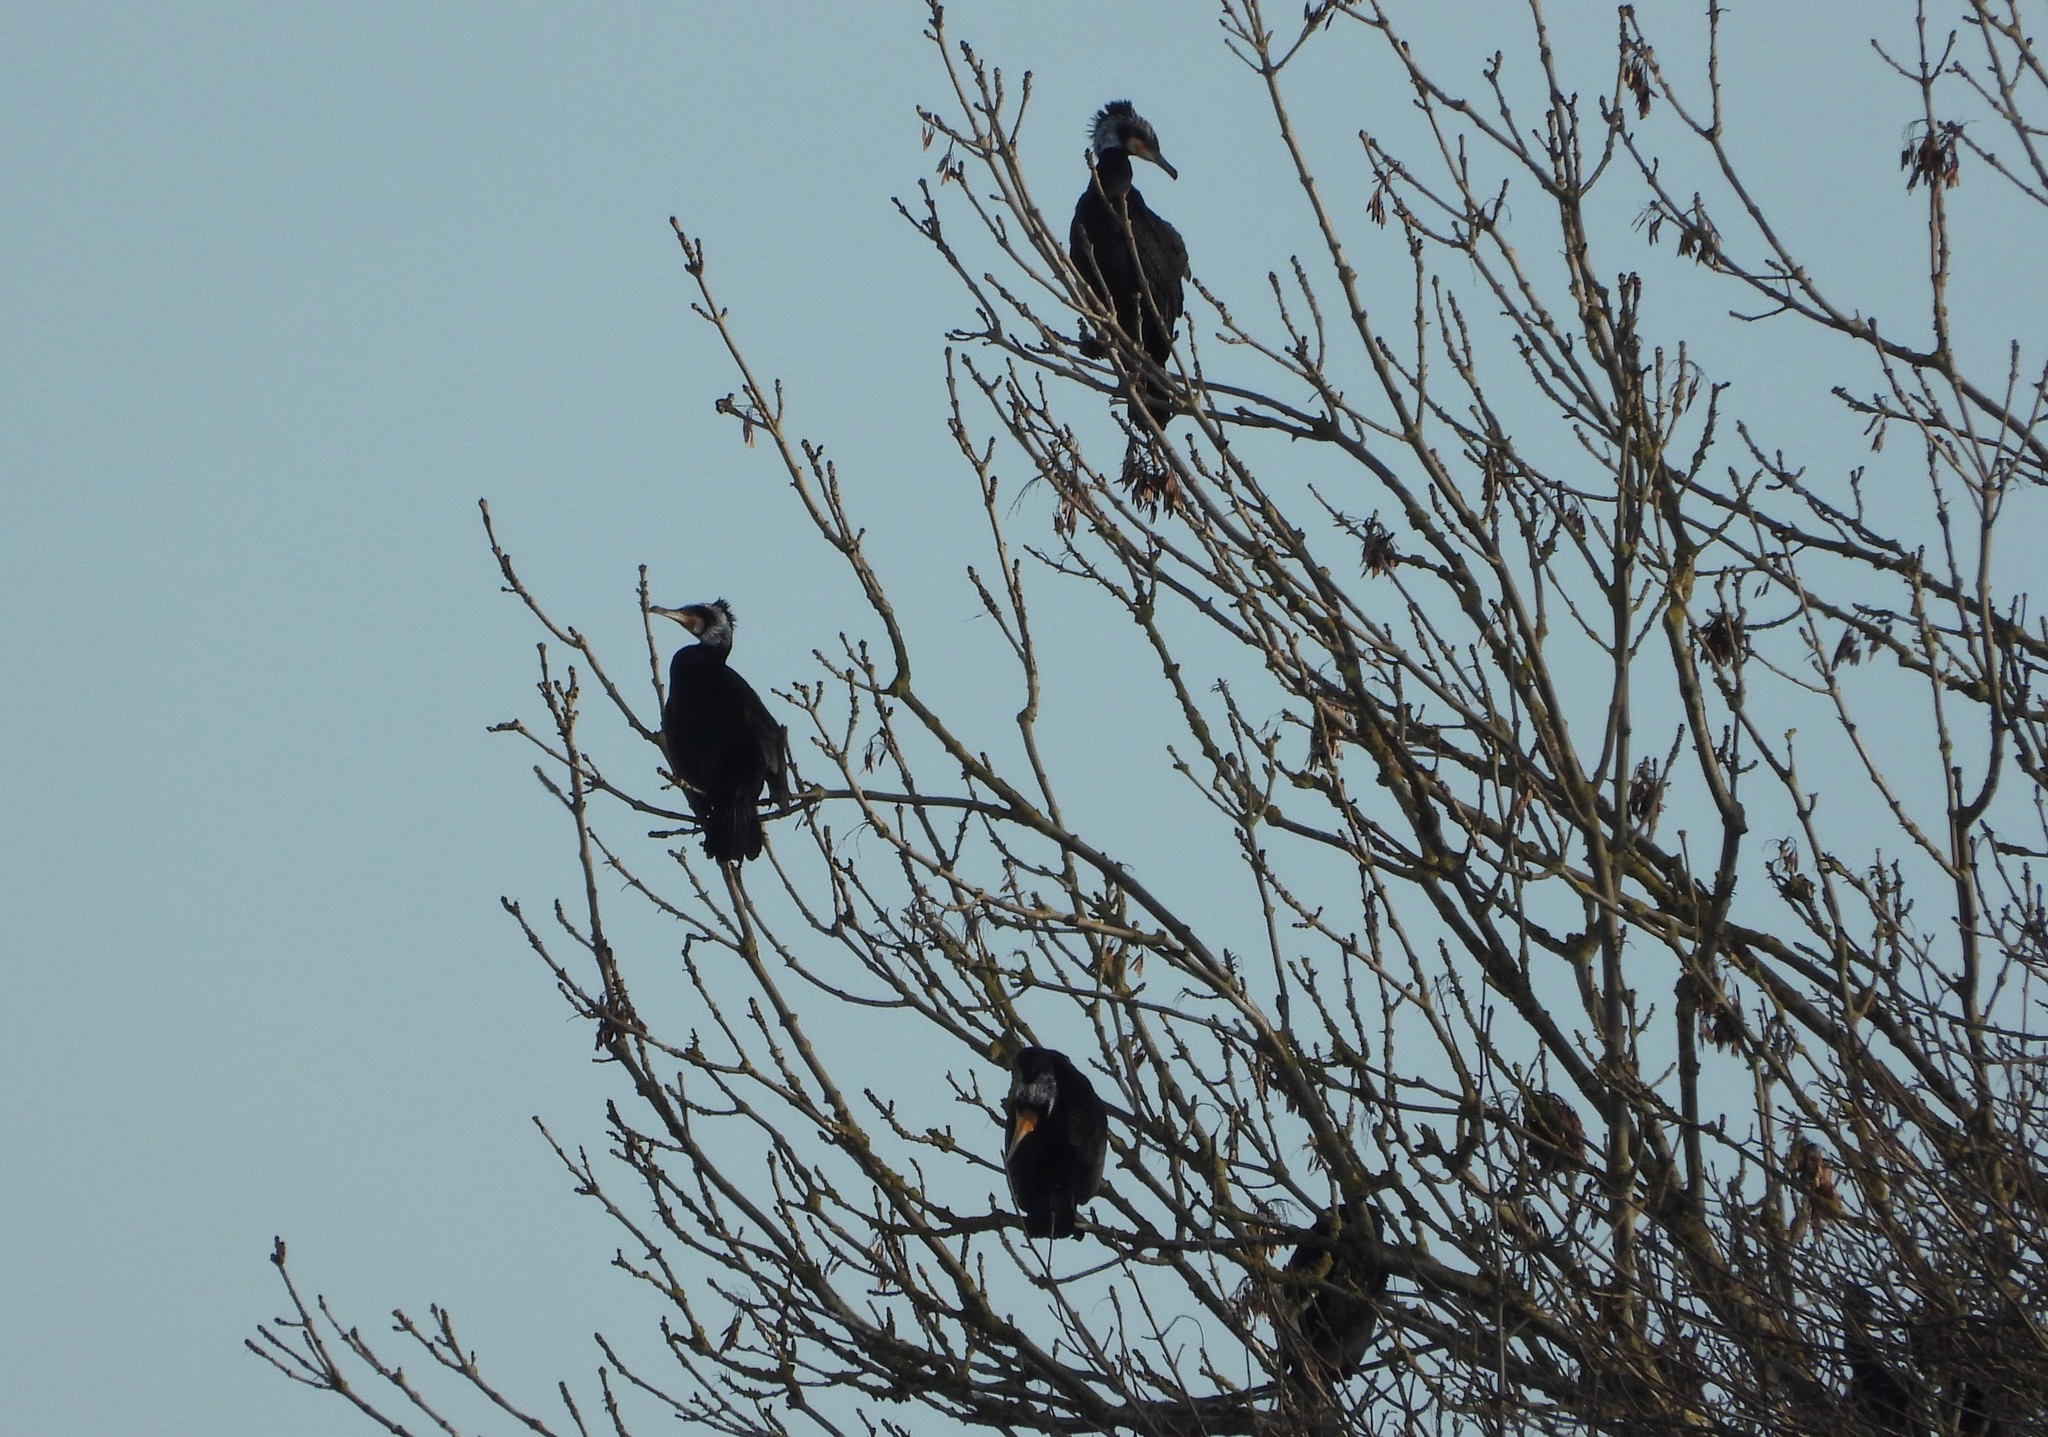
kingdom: Animalia
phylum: Chordata
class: Aves
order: Suliformes
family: Phalacrocoracidae
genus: Phalacrocorax
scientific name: Phalacrocorax carbo
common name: Great cormorant
